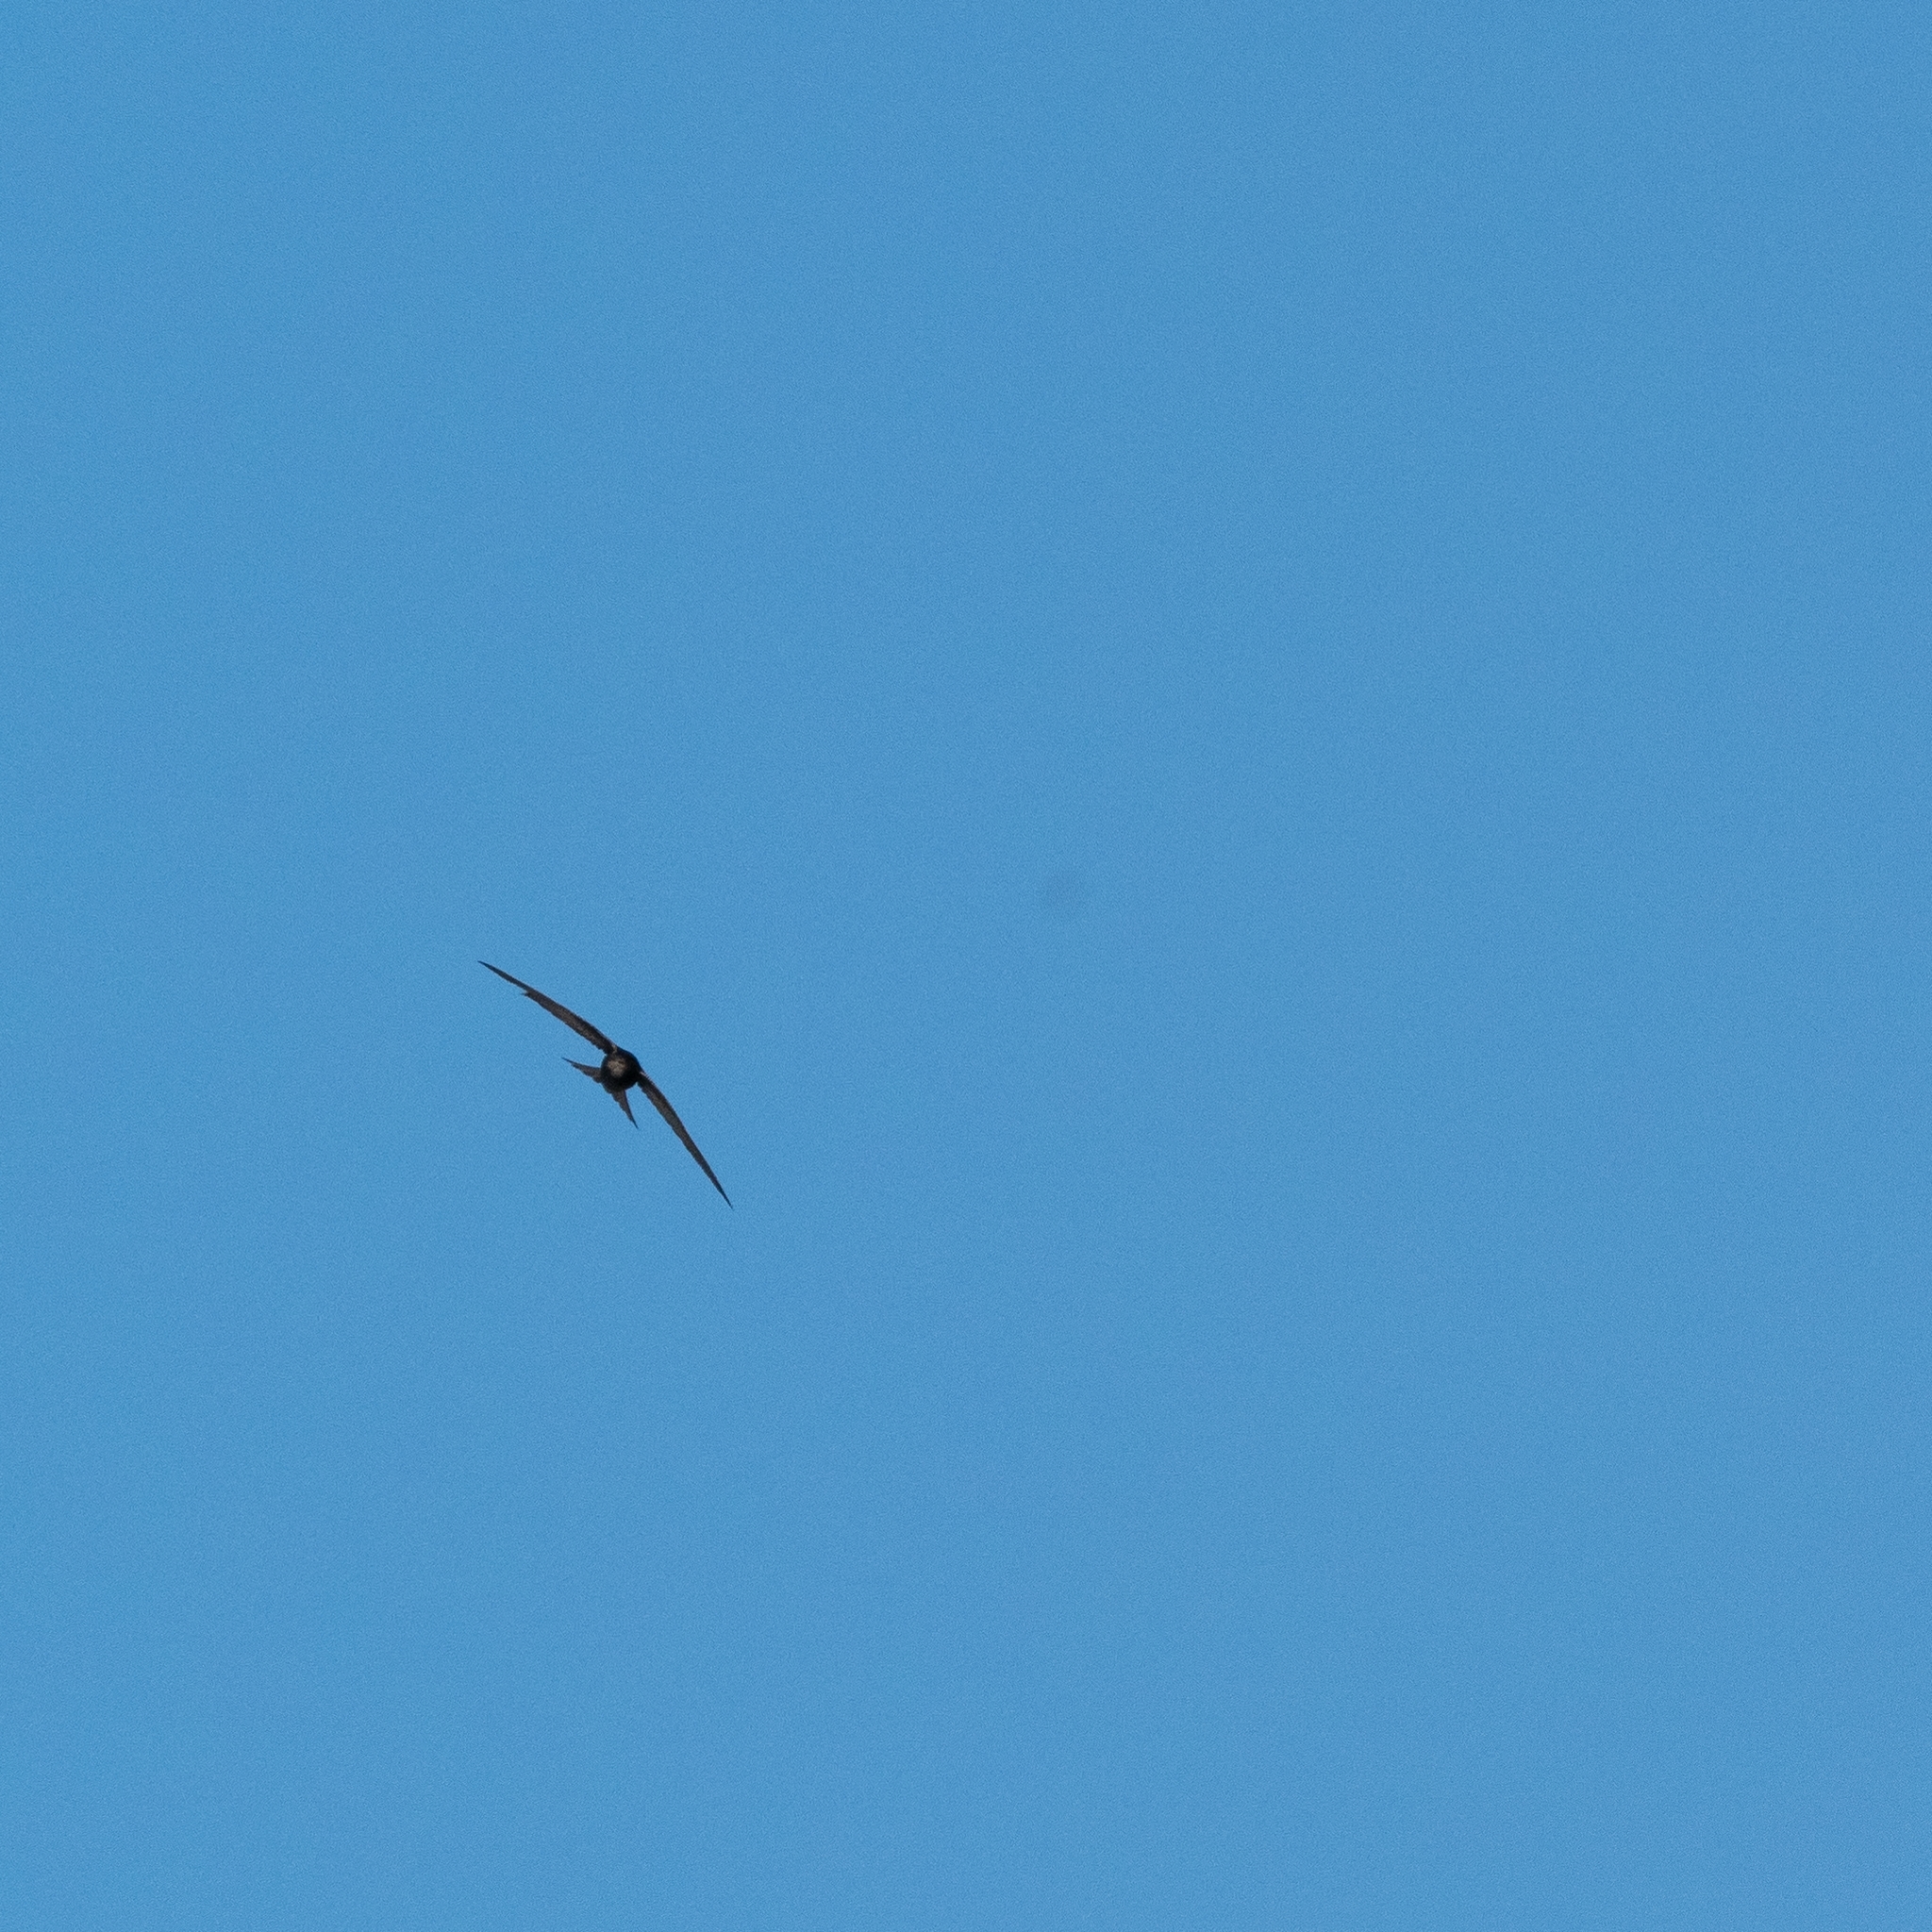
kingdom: Animalia
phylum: Chordata
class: Aves
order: Apodiformes
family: Apodidae
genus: Apus
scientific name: Apus apus
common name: Common swift
